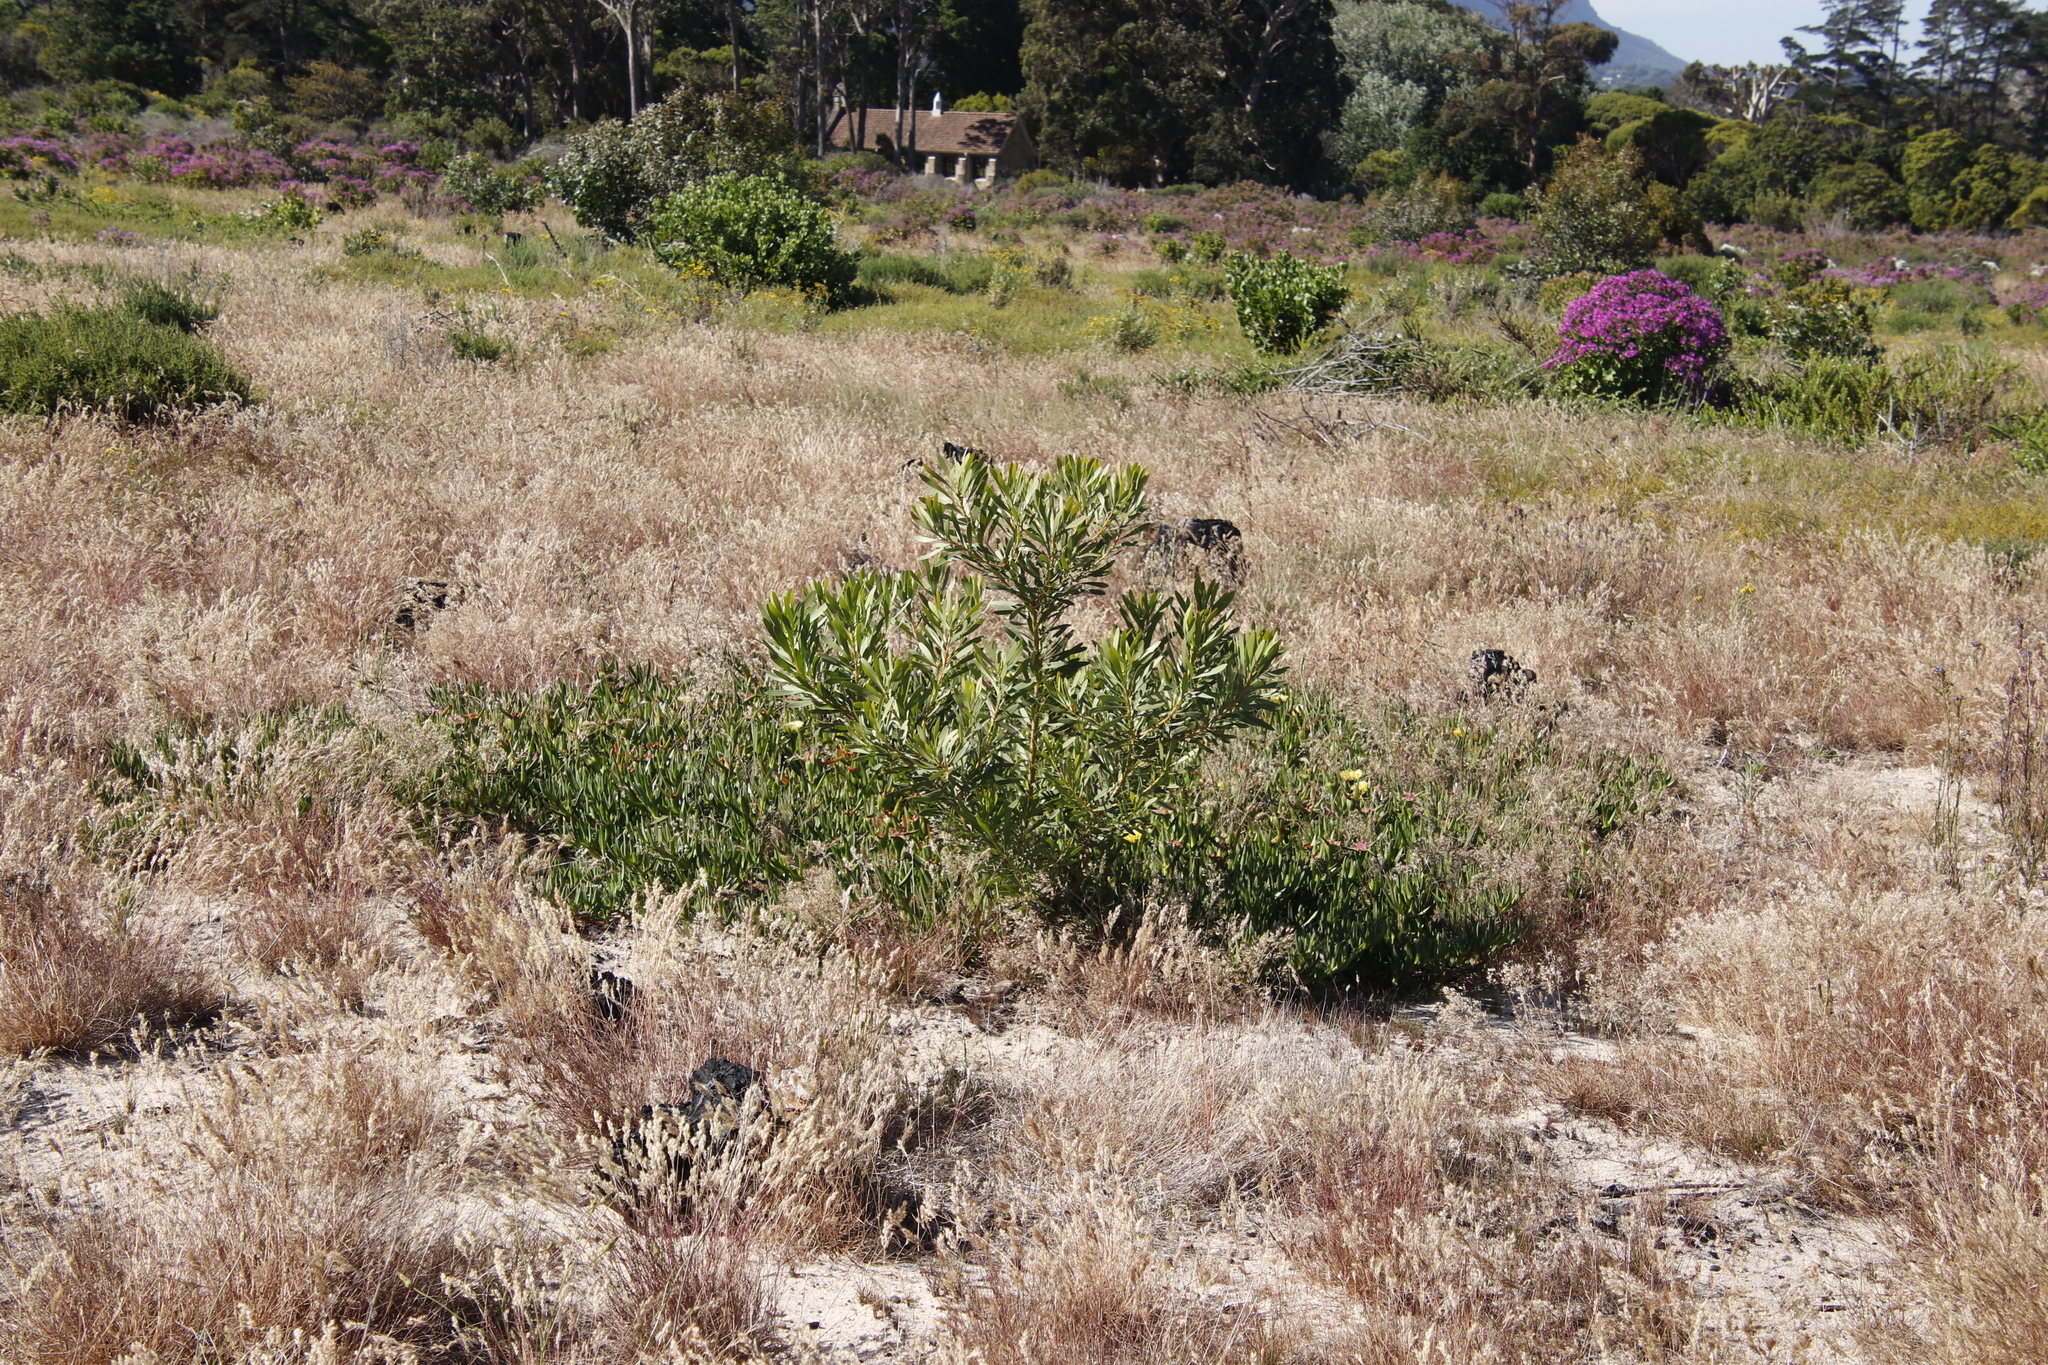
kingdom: Plantae
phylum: Tracheophyta
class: Magnoliopsida
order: Proteales
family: Proteaceae
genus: Protea
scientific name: Protea repens
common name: Sugarbush
